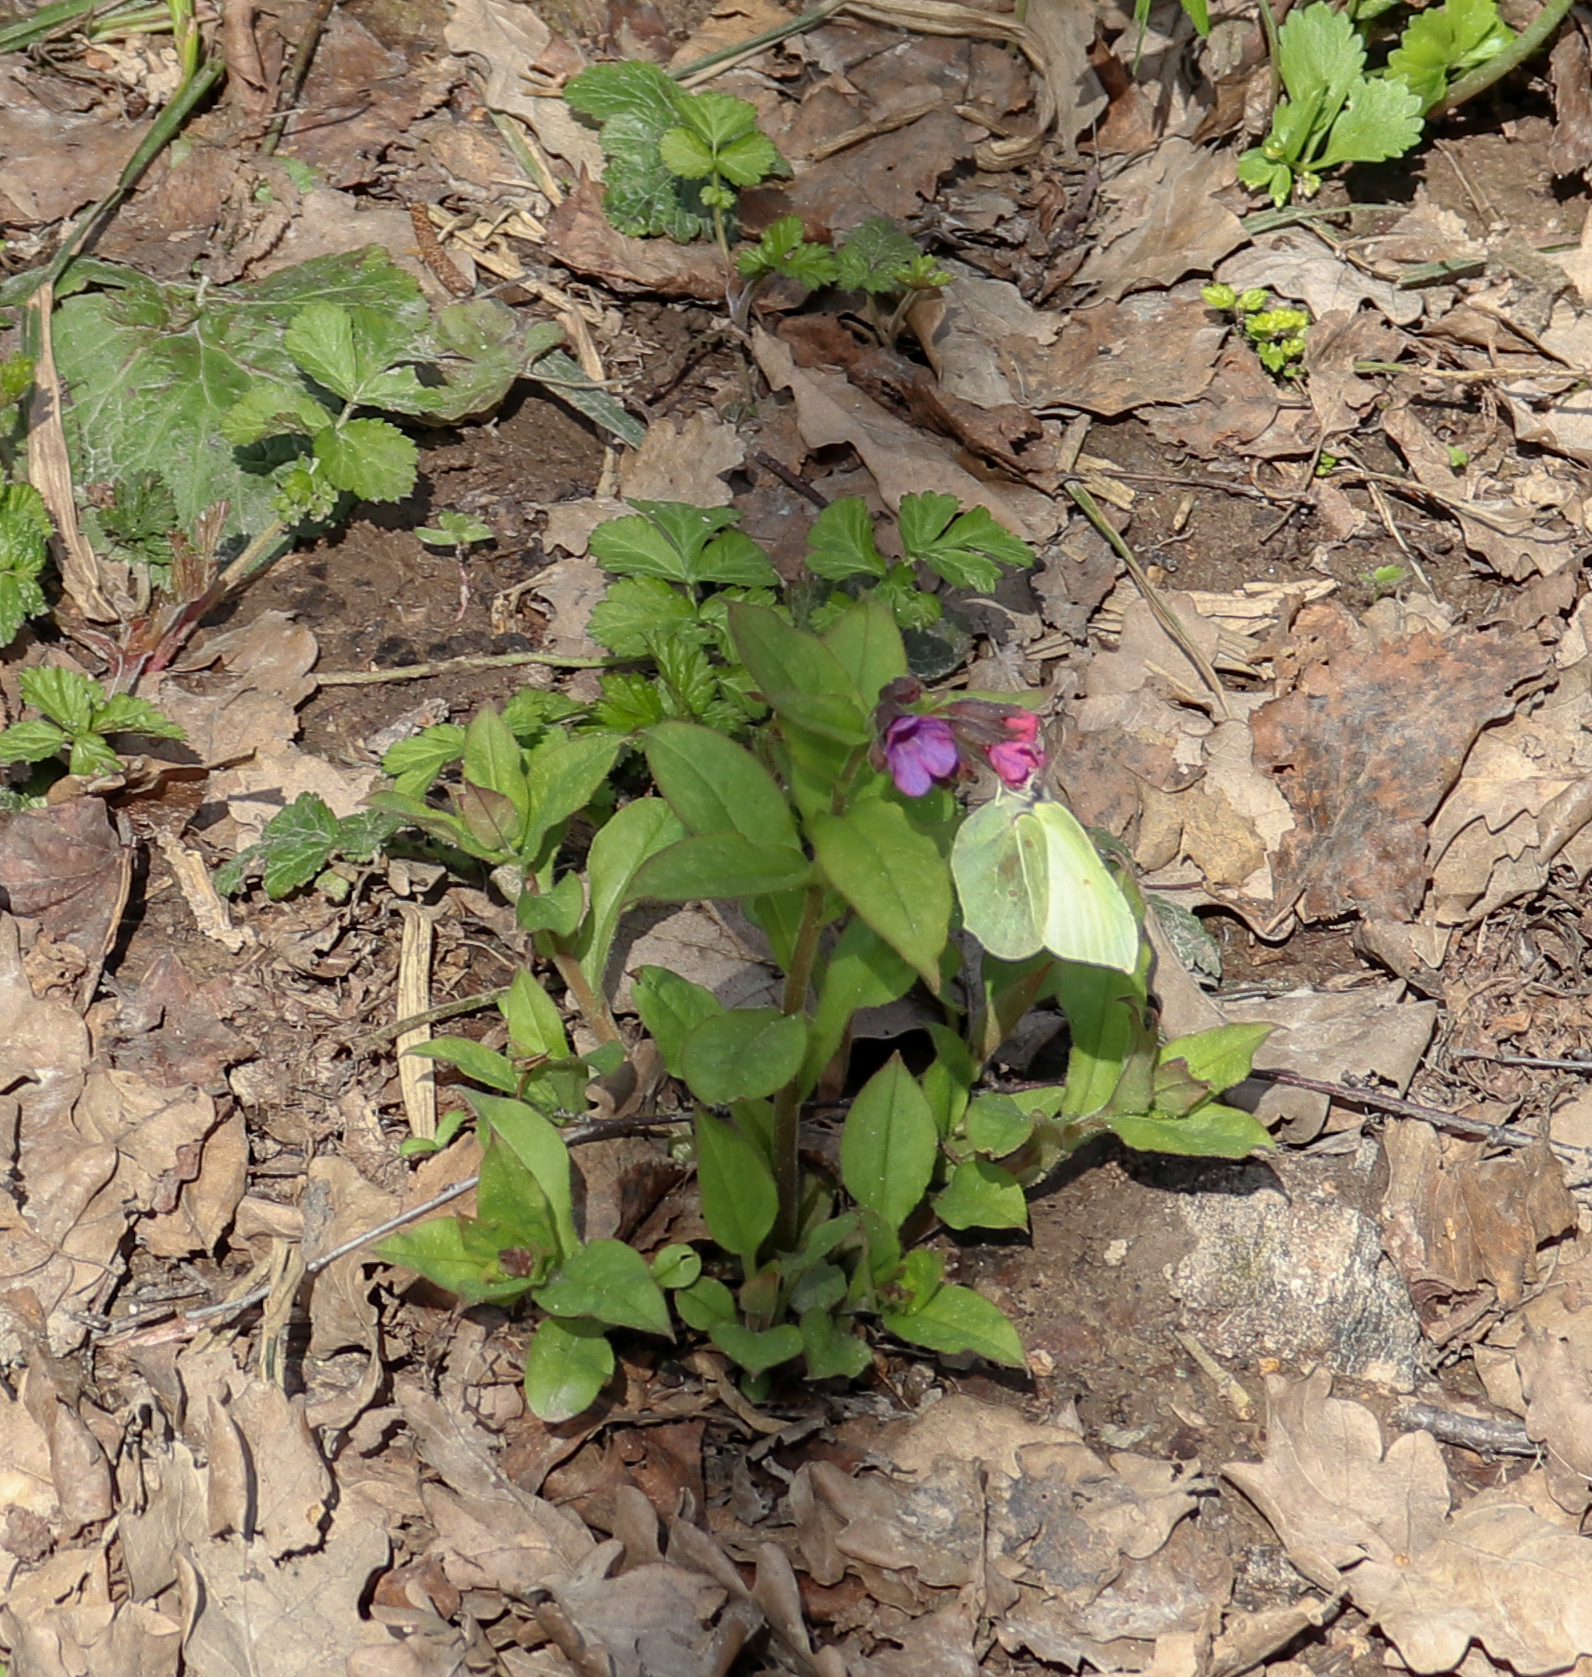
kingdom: Animalia
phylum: Arthropoda
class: Insecta
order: Lepidoptera
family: Pieridae
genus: Gonepteryx
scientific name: Gonepteryx rhamni
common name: Brimstone
